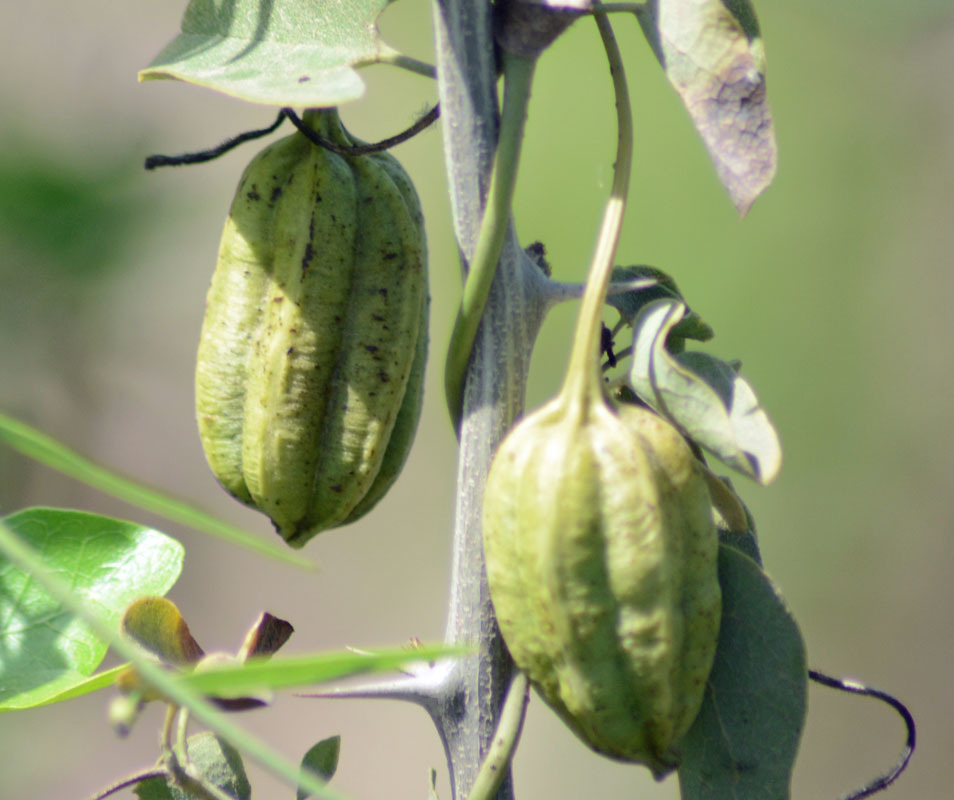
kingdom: Plantae
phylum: Tracheophyta
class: Magnoliopsida
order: Piperales
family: Aristolochiaceae
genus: Aristolochia
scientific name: Aristolochia taliscana
